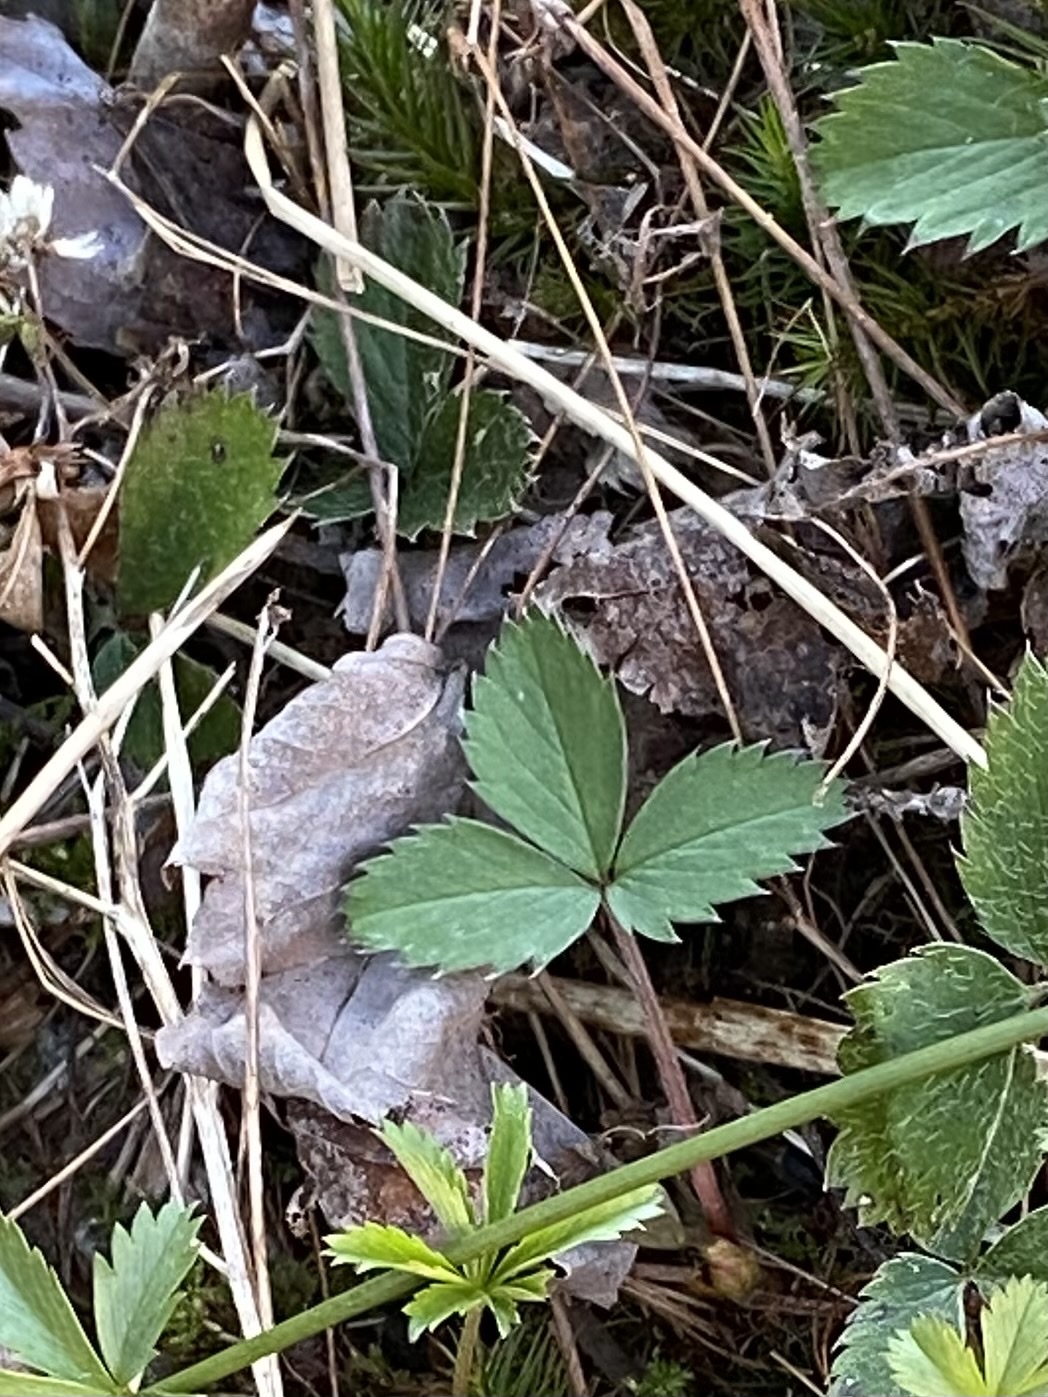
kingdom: Plantae
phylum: Tracheophyta
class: Magnoliopsida
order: Rosales
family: Rosaceae
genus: Fragaria
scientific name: Fragaria virginiana
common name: Thickleaved wild strawberry
